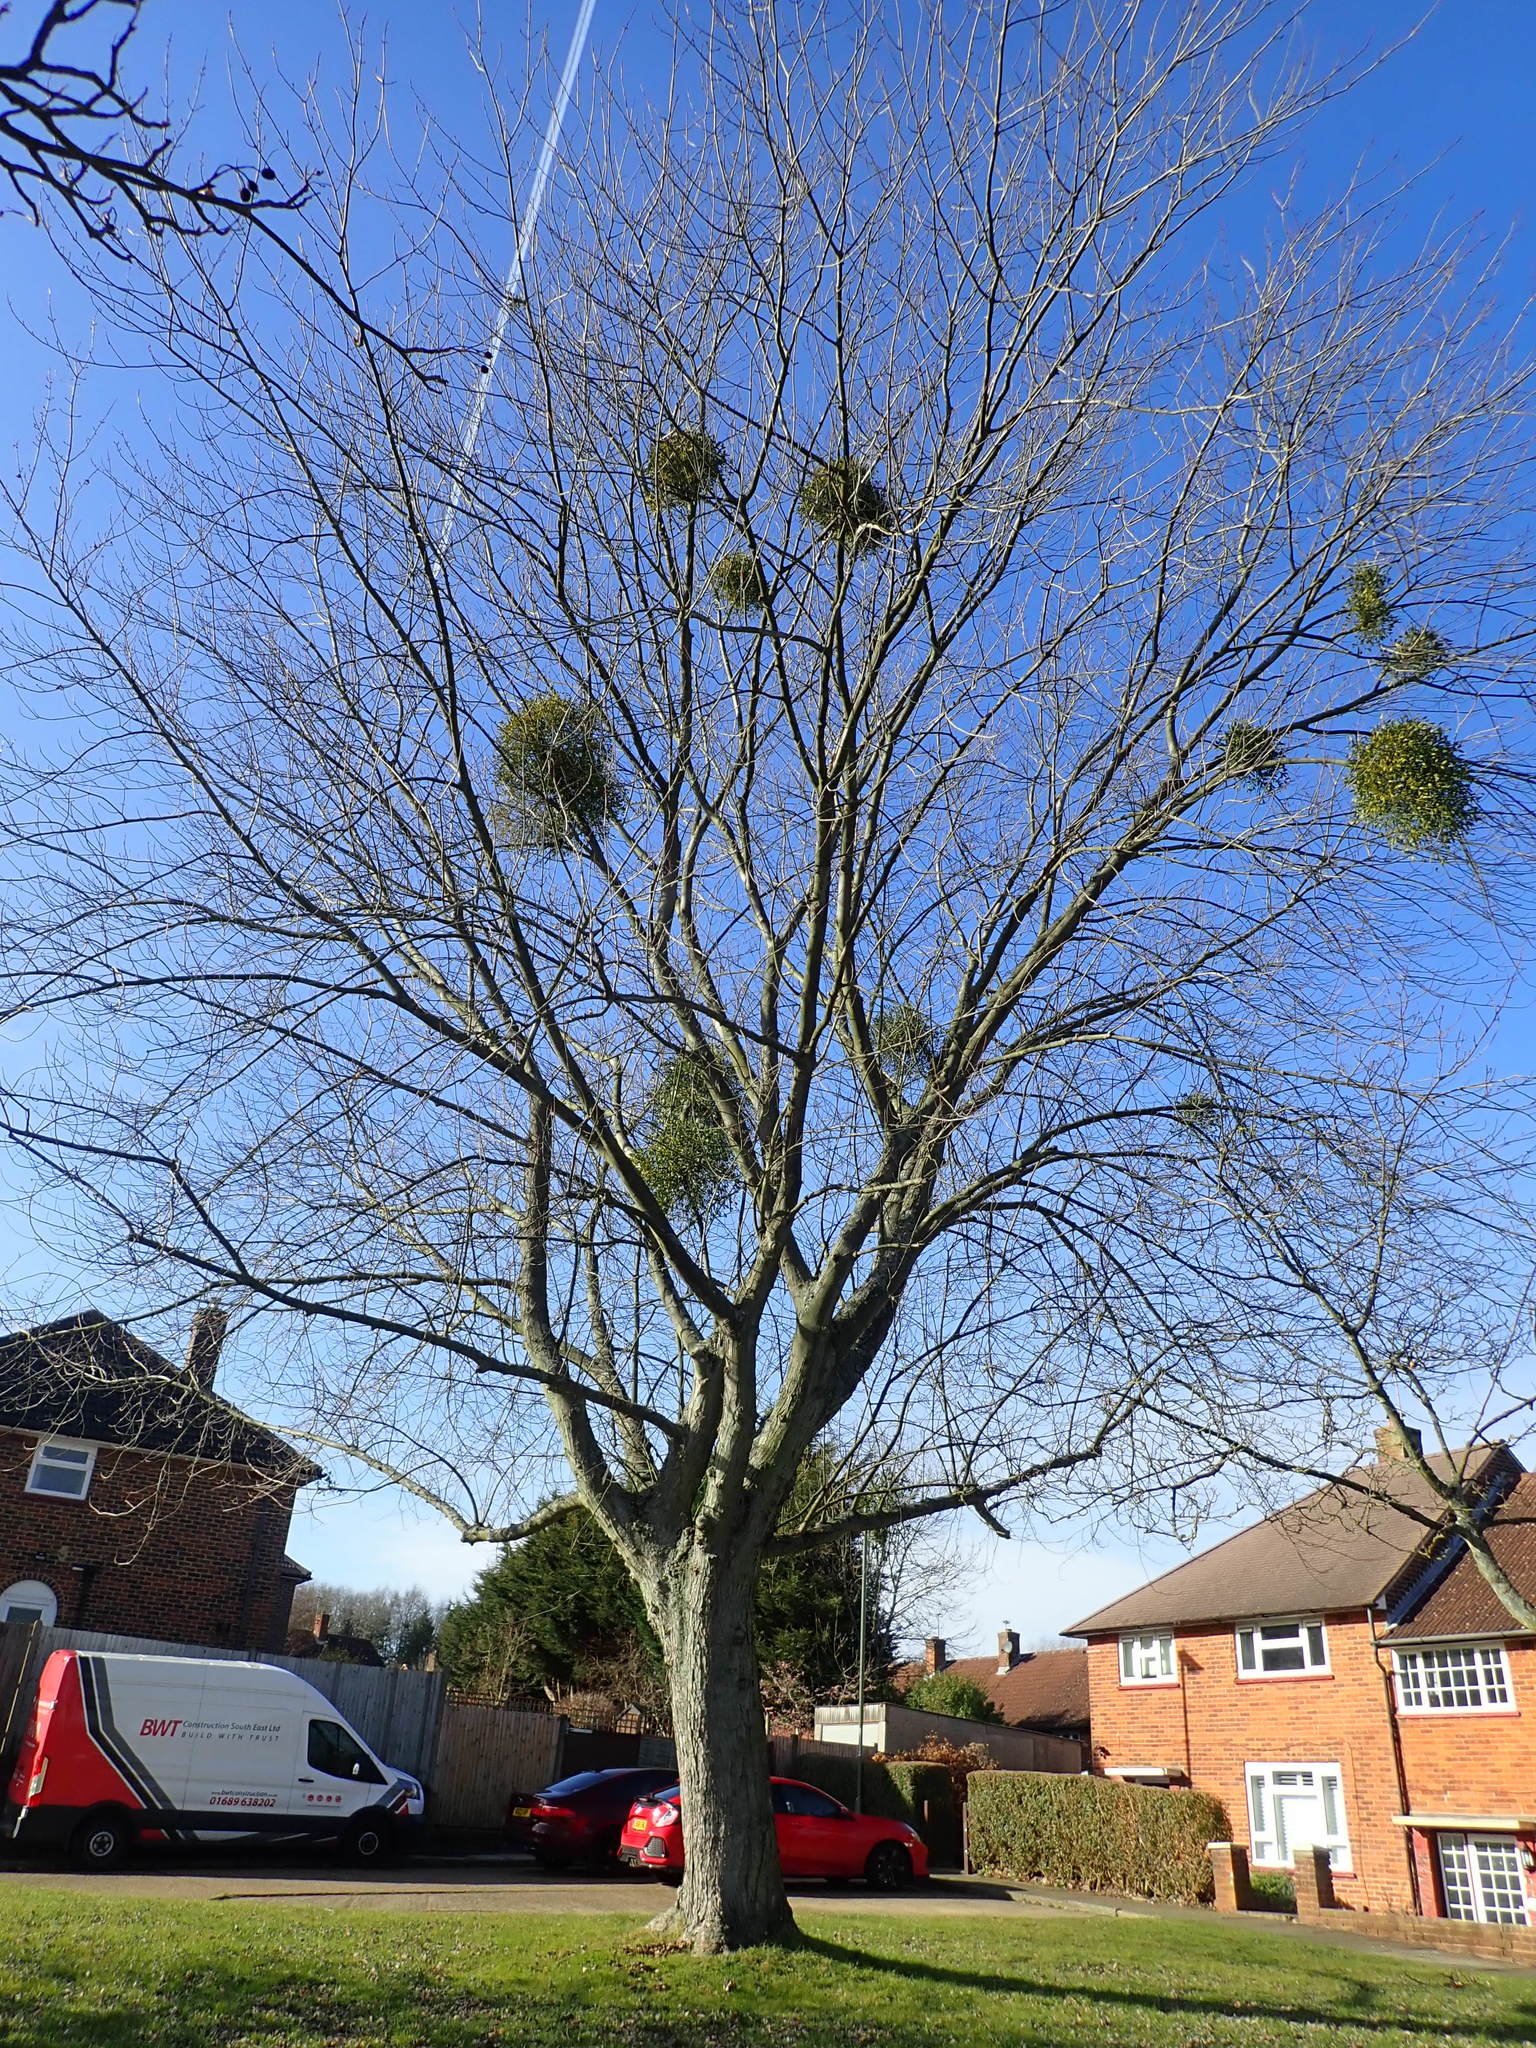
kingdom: Plantae
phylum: Tracheophyta
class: Magnoliopsida
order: Santalales
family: Viscaceae
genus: Viscum
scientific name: Viscum album
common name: Mistletoe
